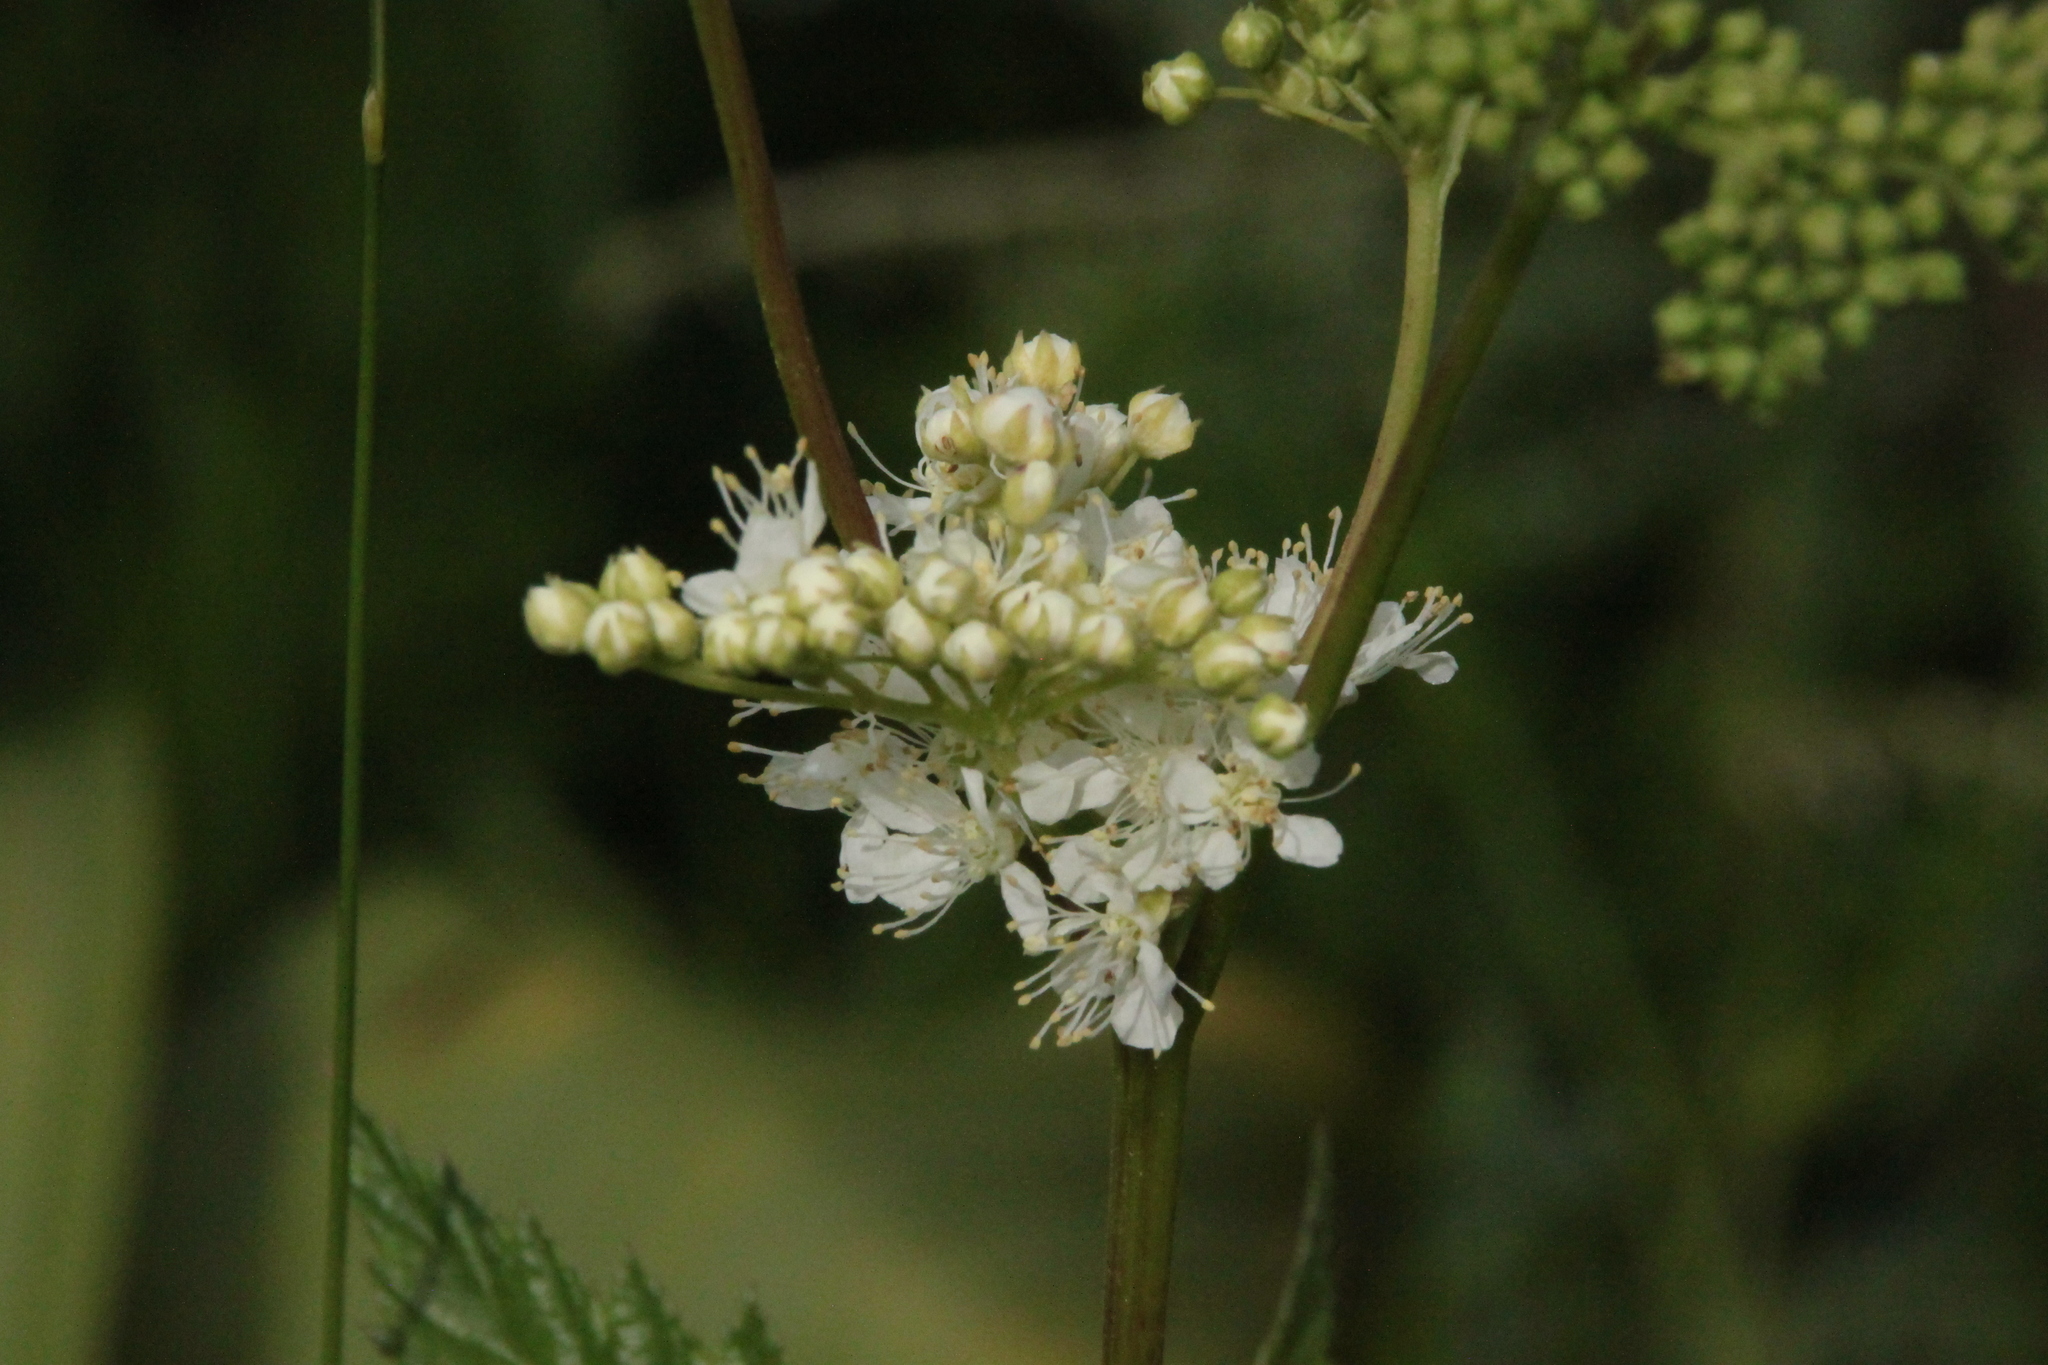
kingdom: Plantae
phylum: Tracheophyta
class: Magnoliopsida
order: Rosales
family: Rosaceae
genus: Filipendula
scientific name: Filipendula ulmaria
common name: Meadowsweet
